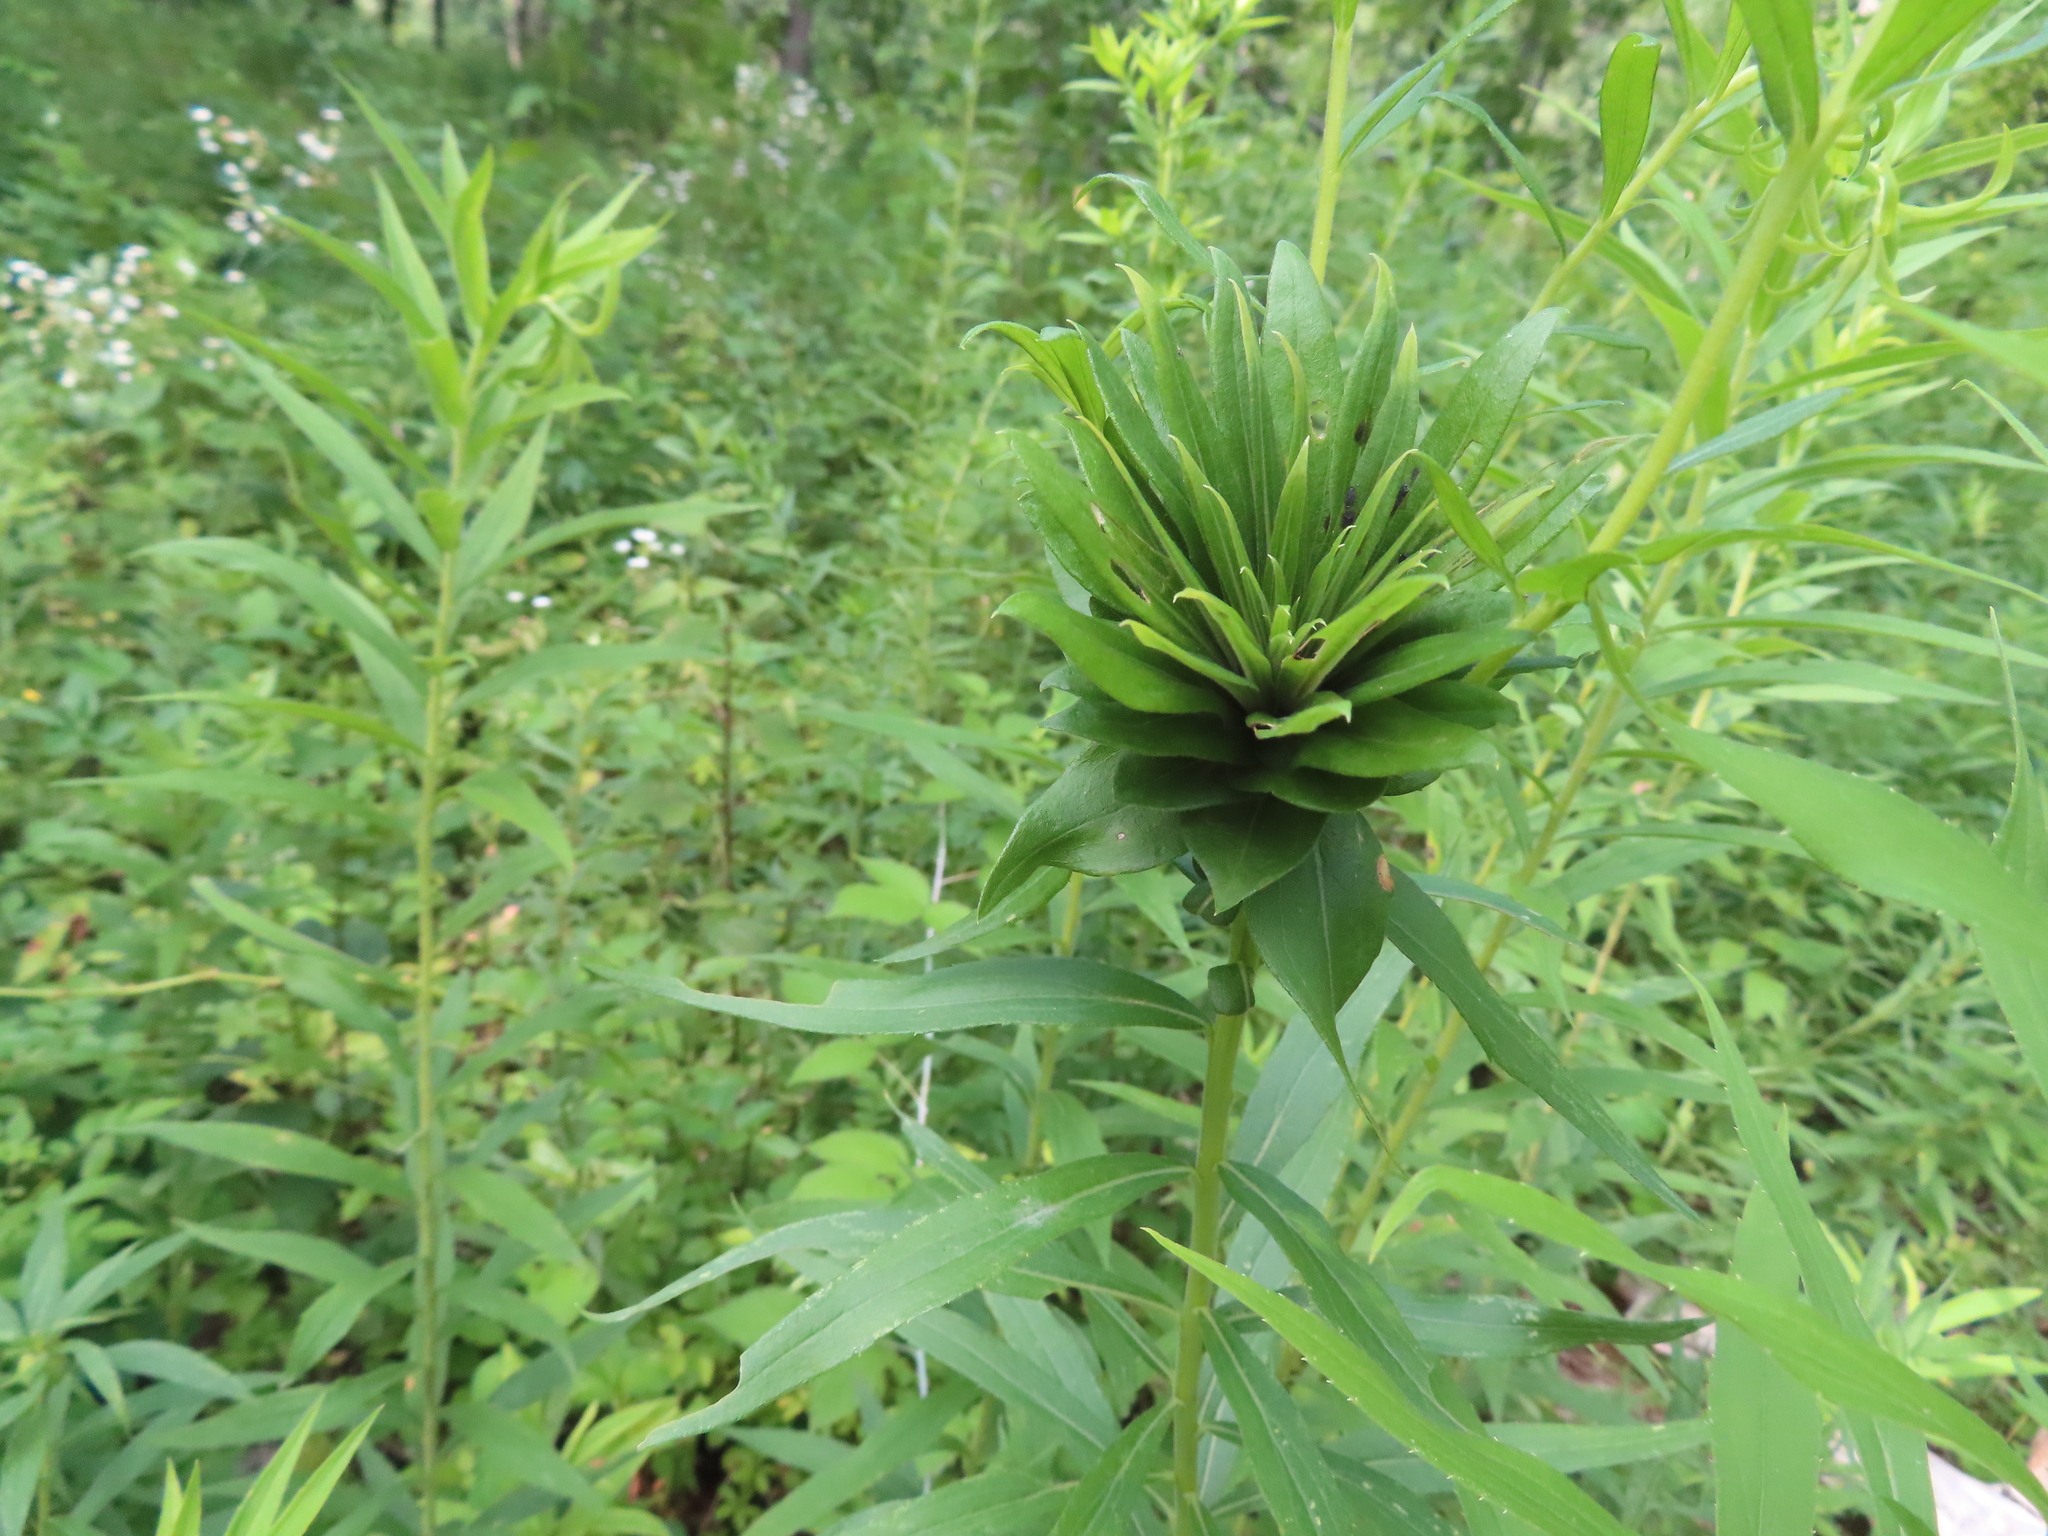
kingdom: Animalia
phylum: Arthropoda
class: Insecta
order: Diptera
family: Cecidomyiidae
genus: Rhopalomyia
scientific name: Rhopalomyia solidaginis
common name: Goldenrod bunch gall midge
